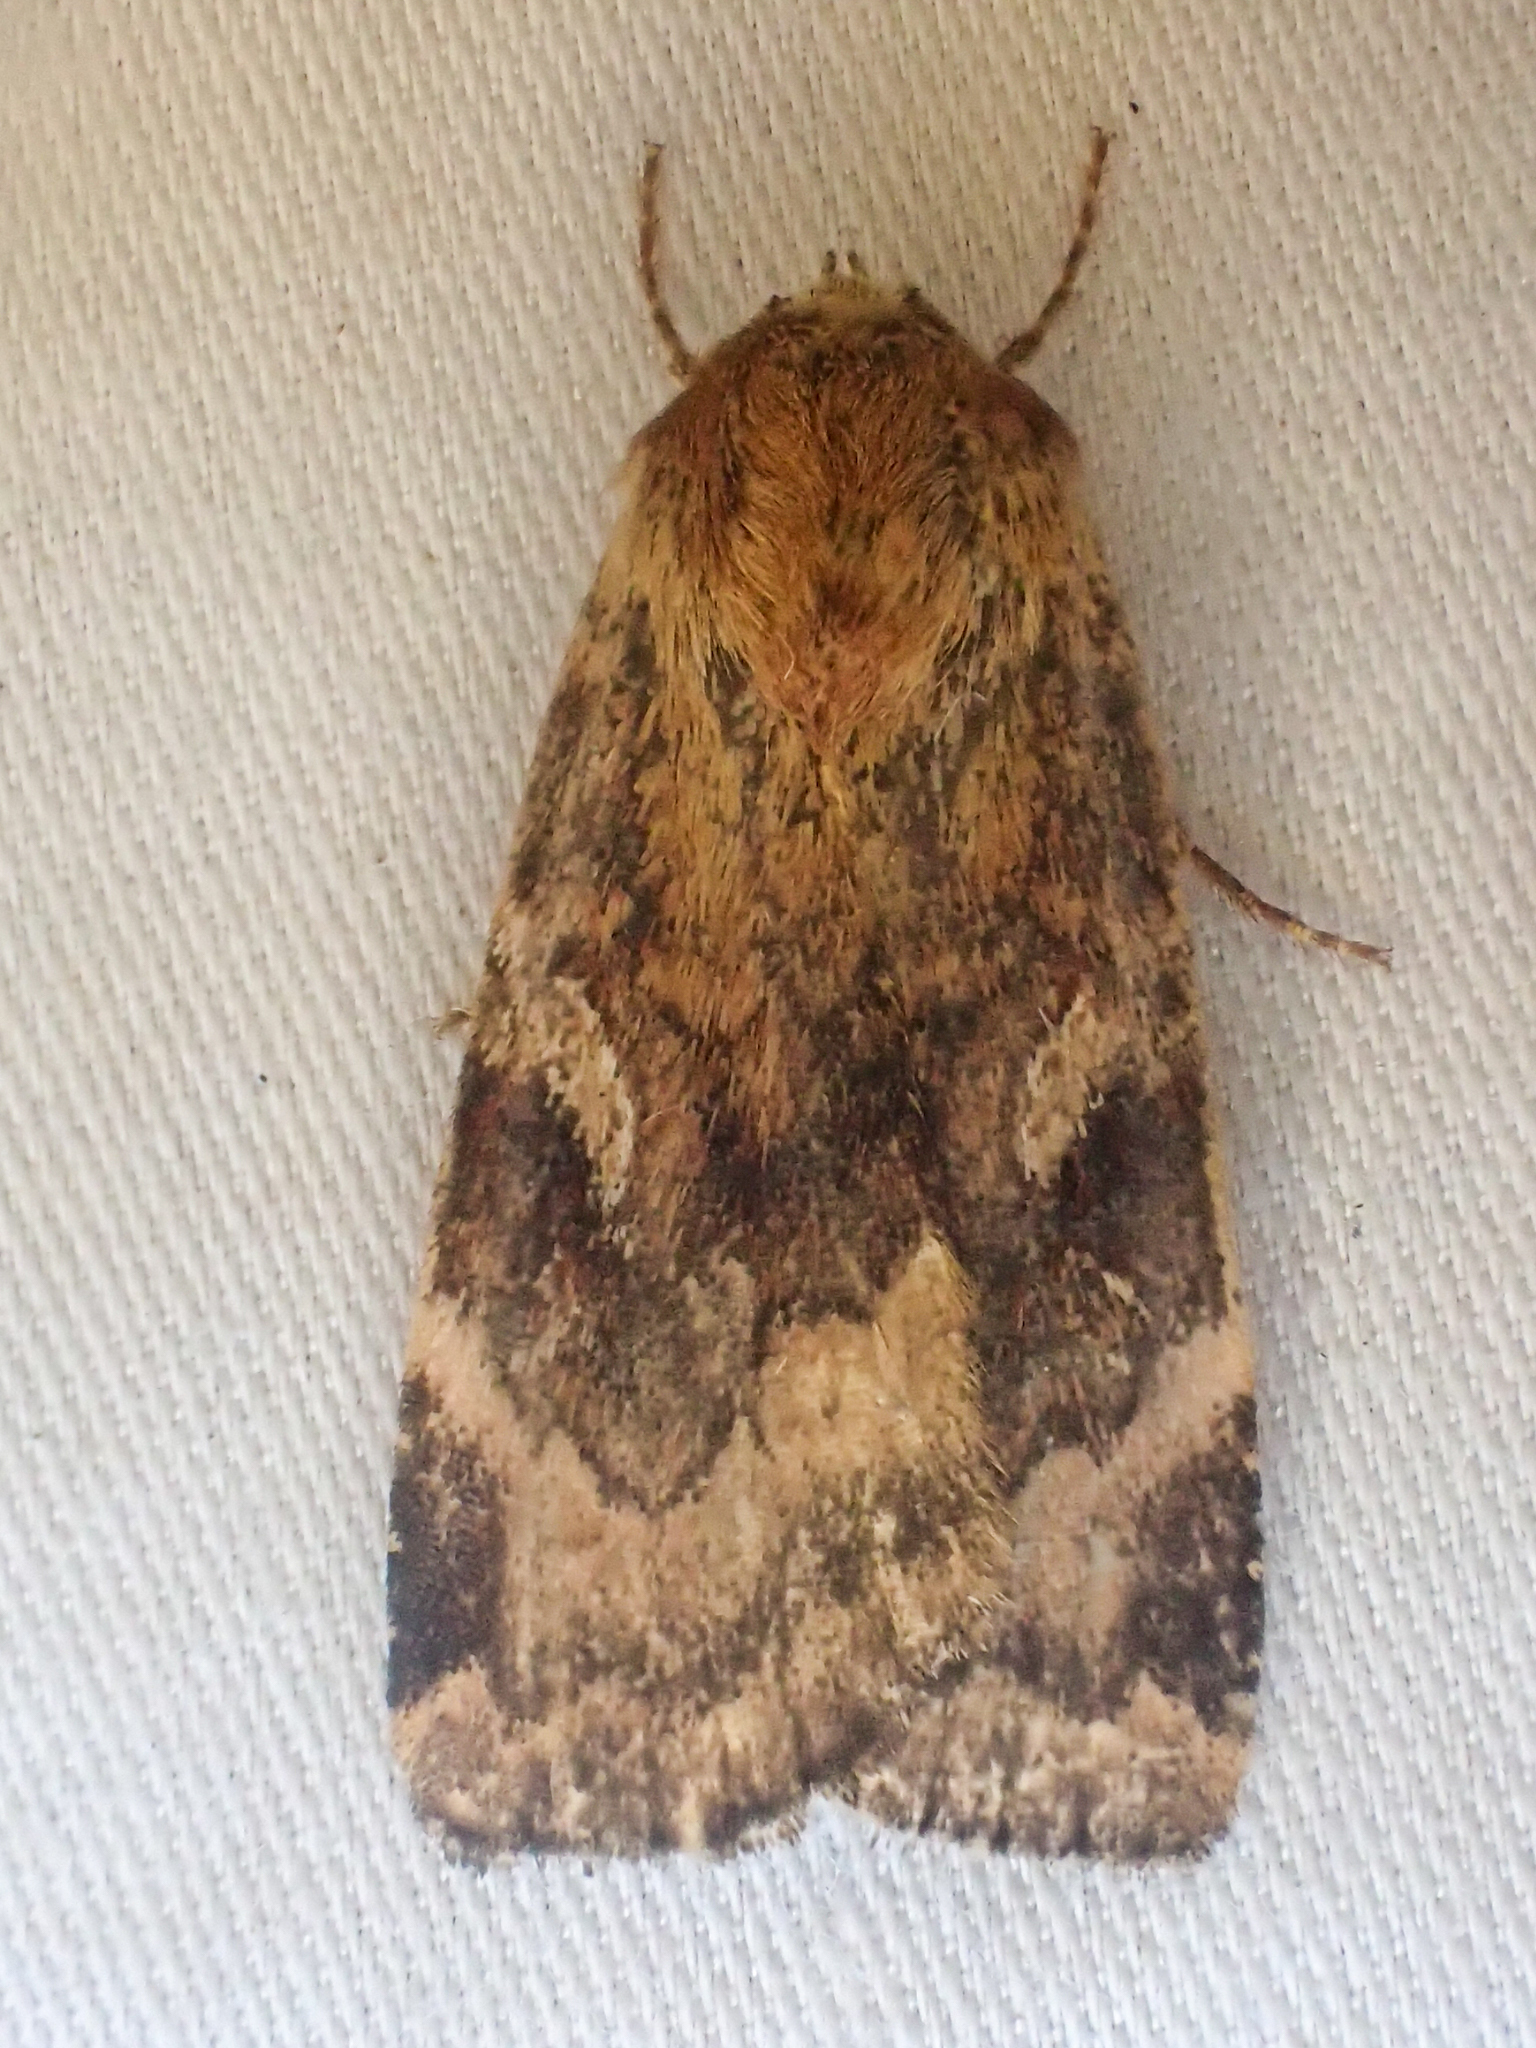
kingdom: Animalia
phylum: Arthropoda
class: Insecta
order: Lepidoptera
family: Noctuidae
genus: Cryptocala
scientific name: Cryptocala acadiensis
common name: Catocaline dart
